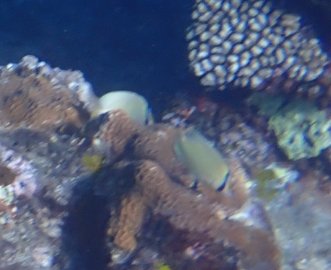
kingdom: Animalia
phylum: Chordata
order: Perciformes
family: Chaetodontidae
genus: Chaetodon
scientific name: Chaetodon citrinellus
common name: Speckled butterflyfish
